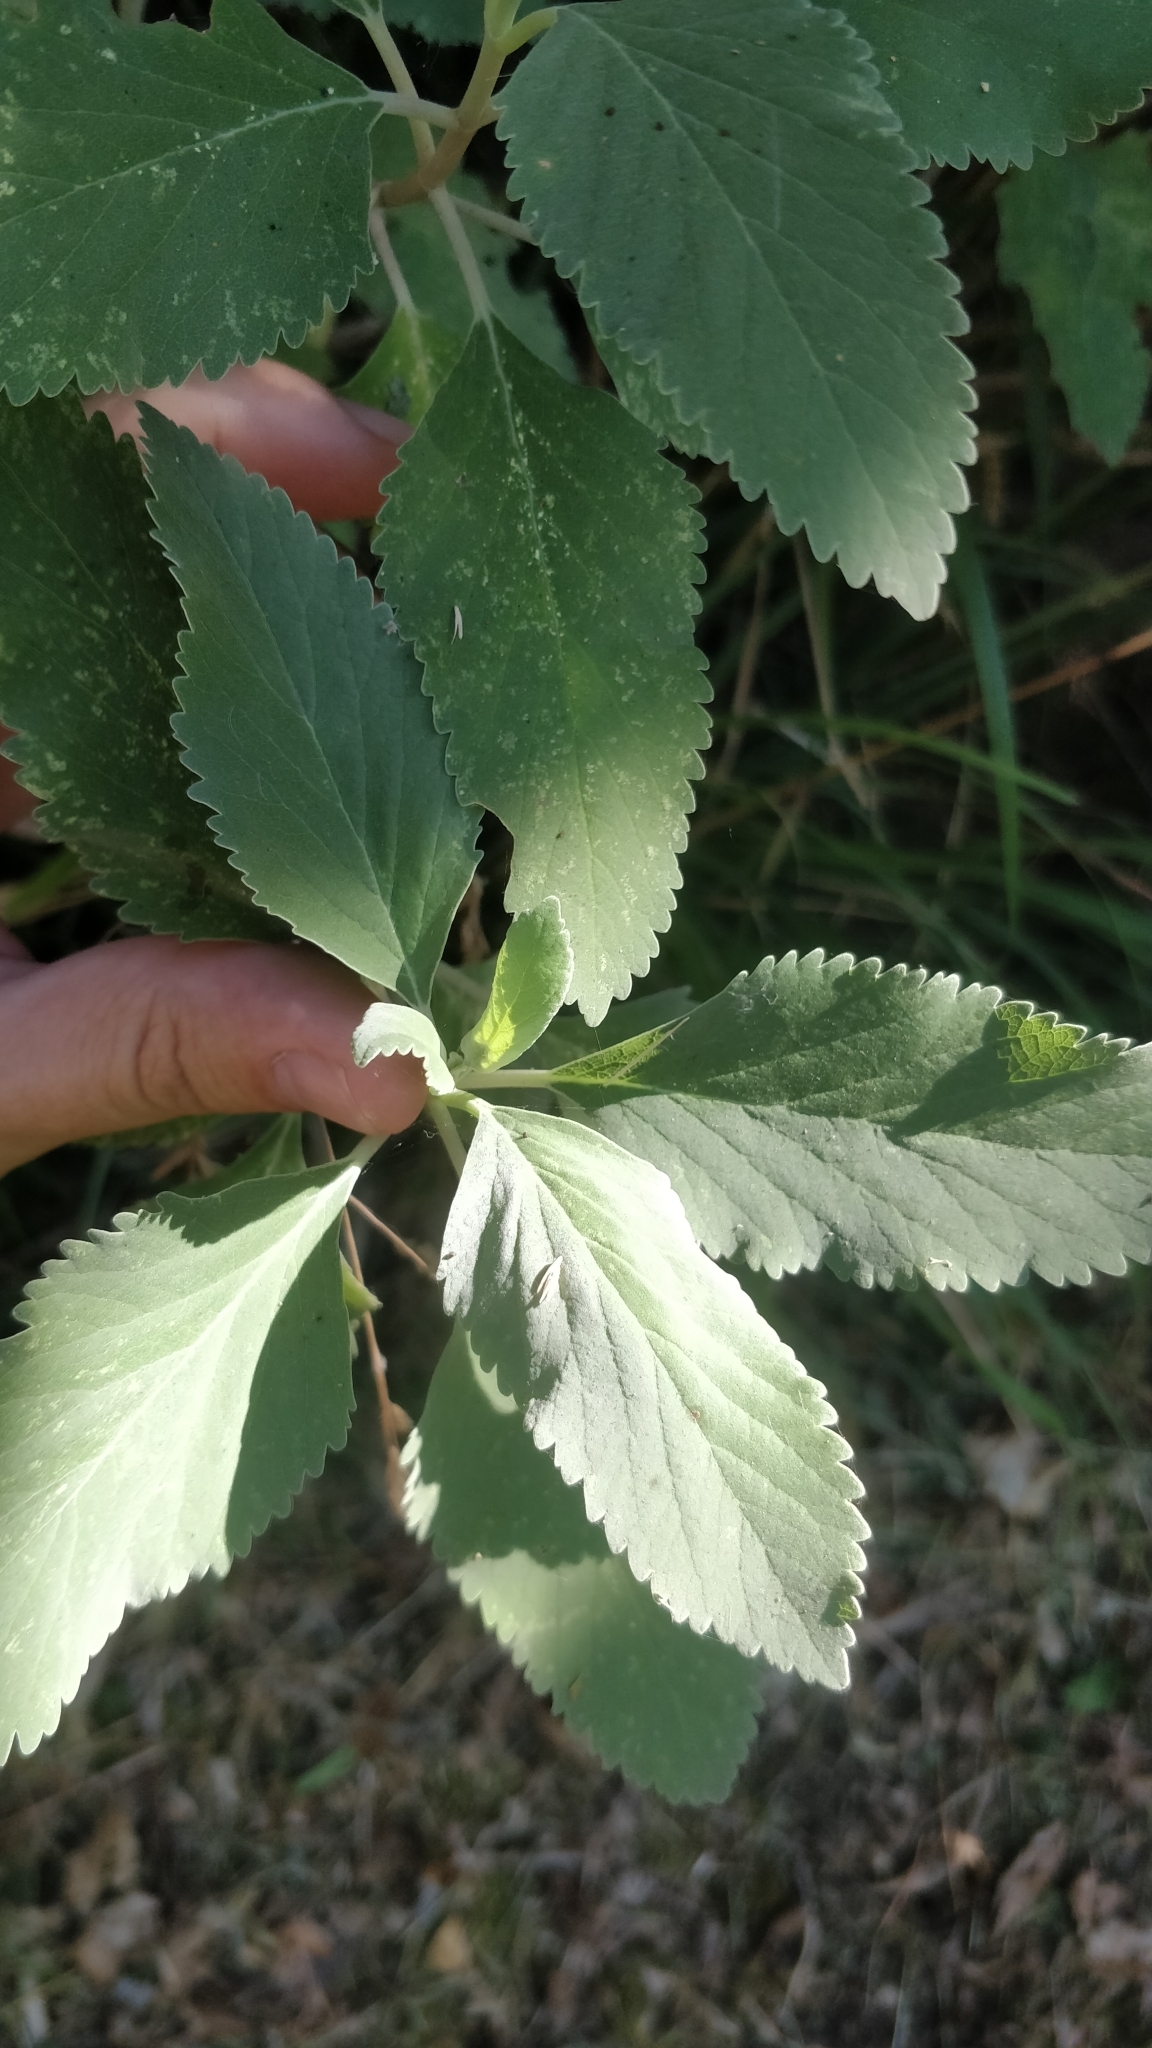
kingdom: Plantae
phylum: Tracheophyta
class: Magnoliopsida
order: Lamiales
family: Lamiaceae
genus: Teucrium
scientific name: Teucrium betonicum
